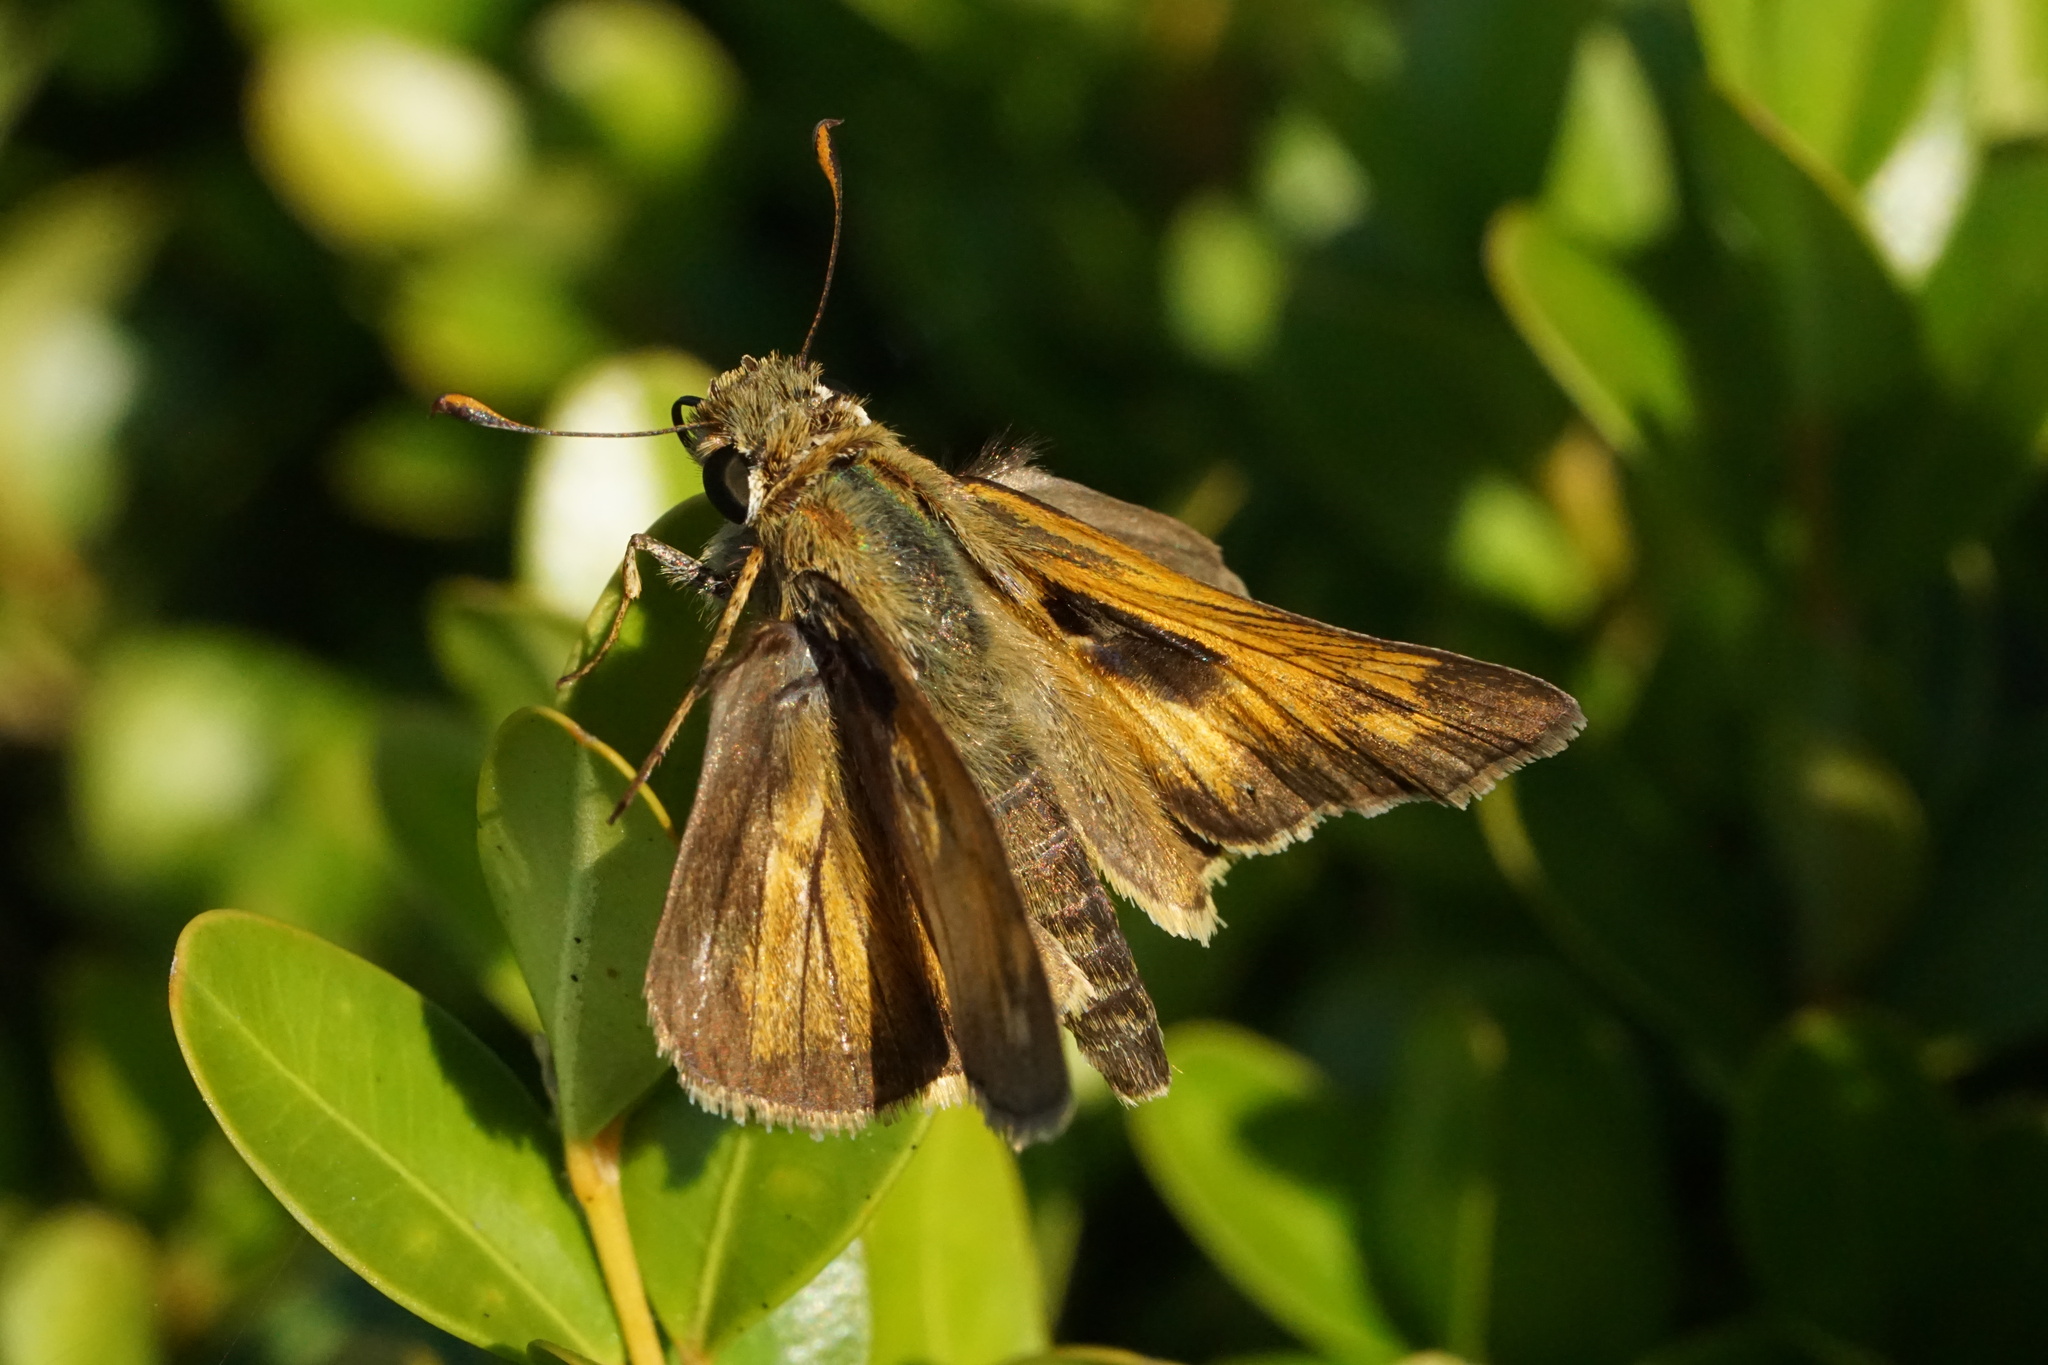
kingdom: Animalia
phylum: Arthropoda
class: Insecta
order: Lepidoptera
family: Hesperiidae
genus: Atalopedes
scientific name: Atalopedes
